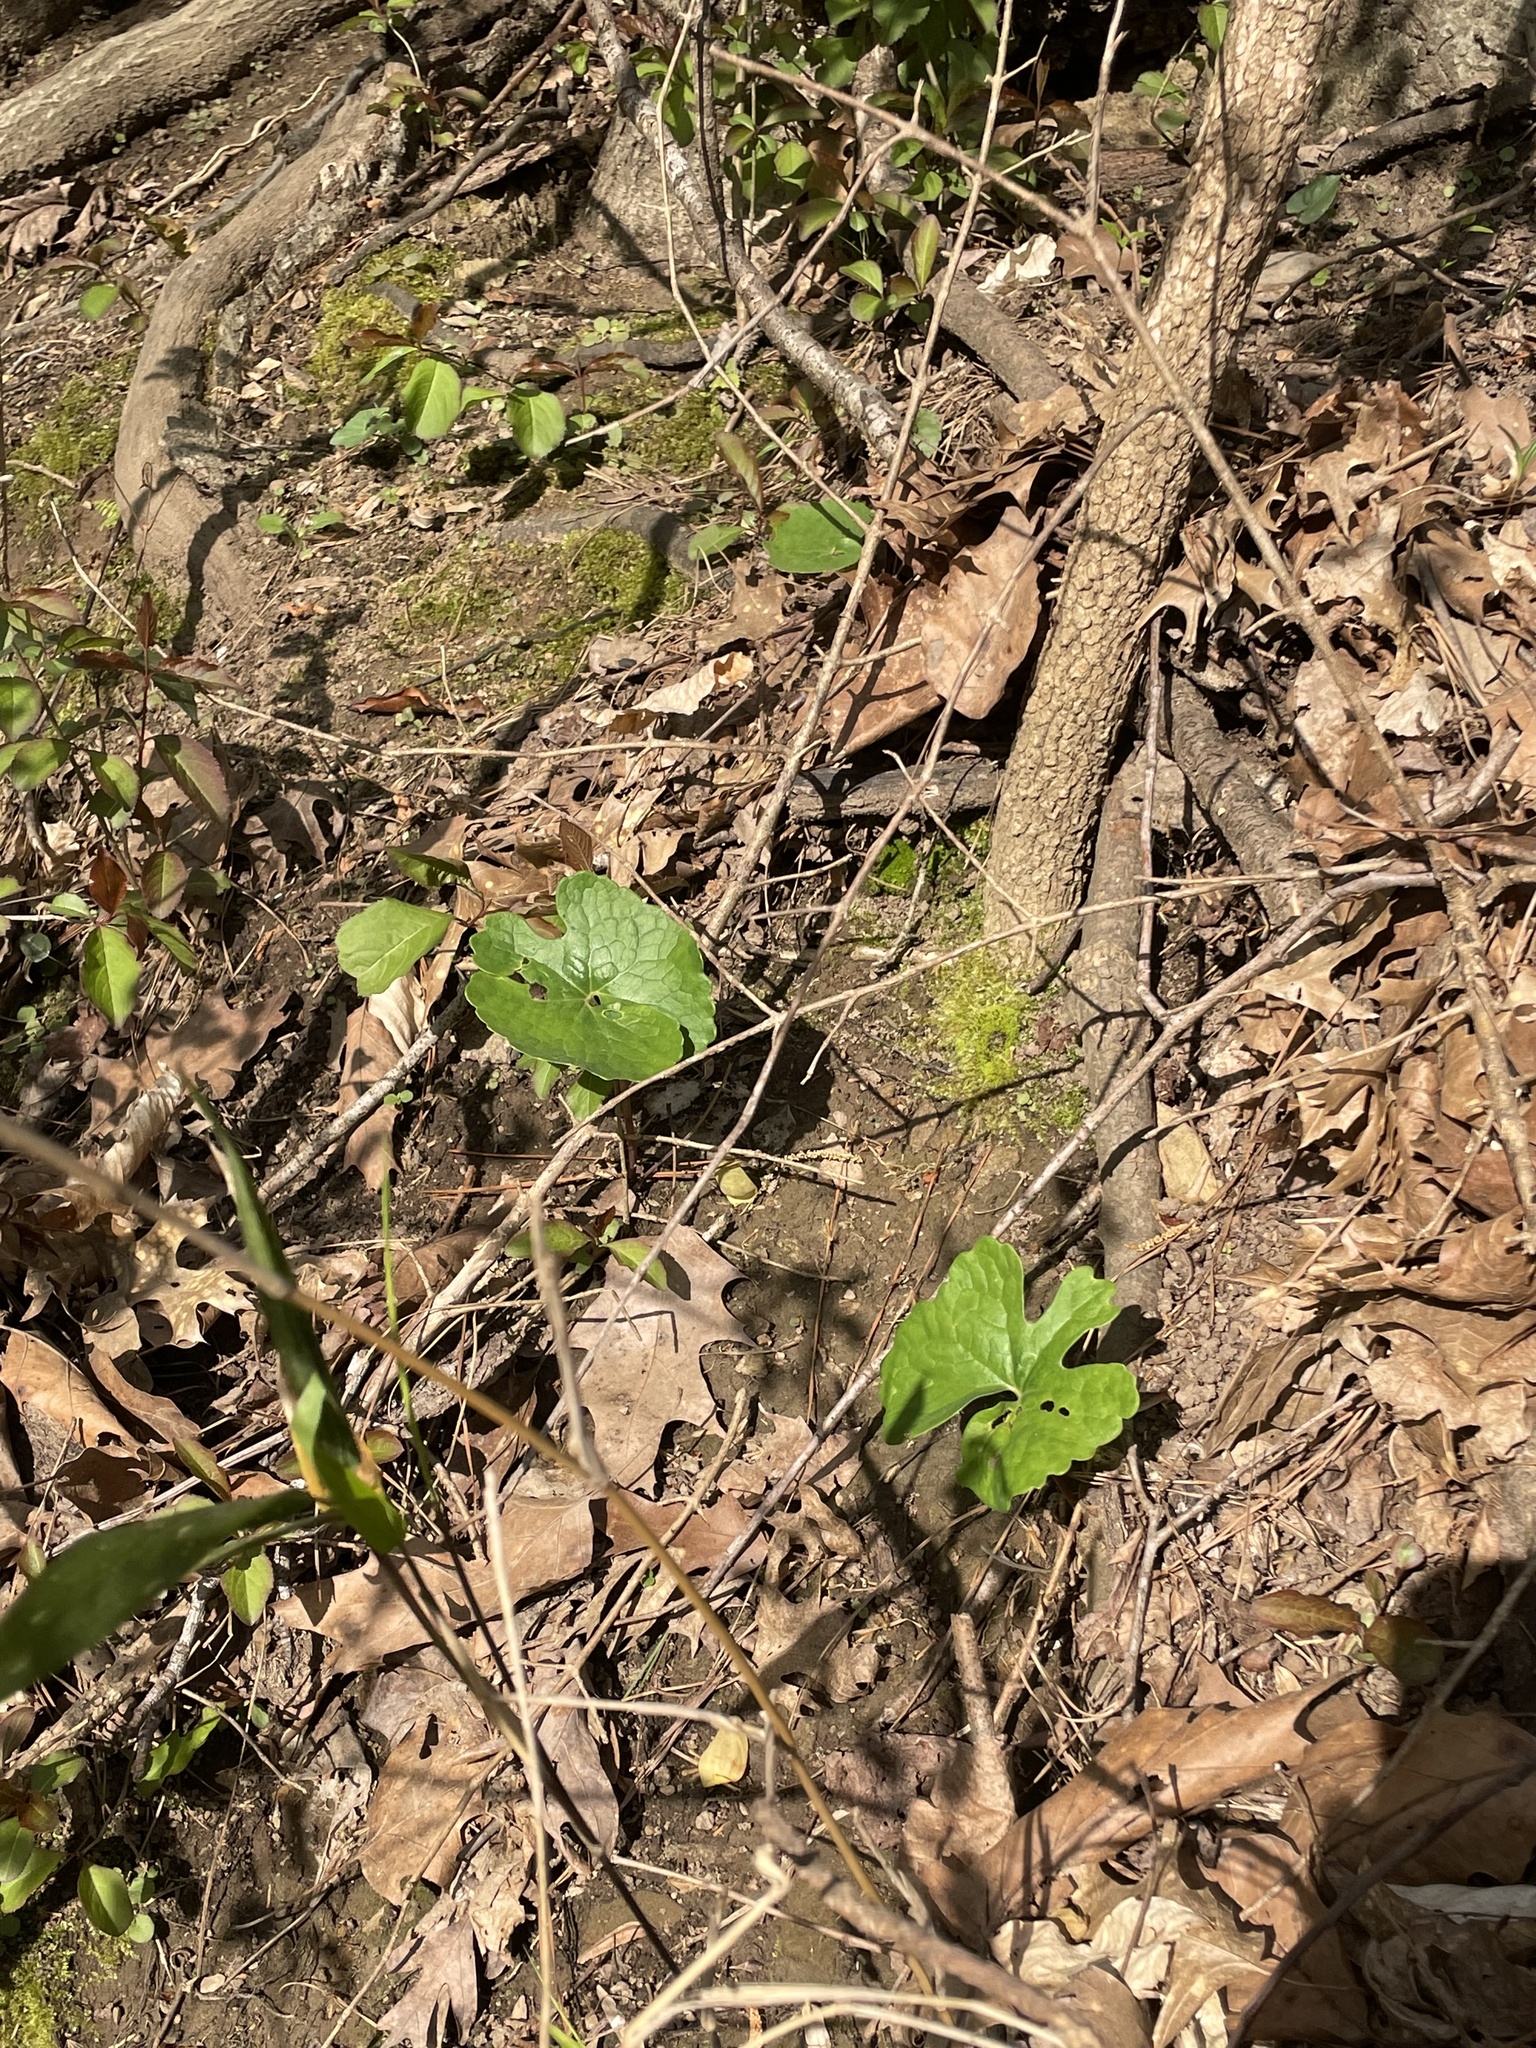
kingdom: Plantae
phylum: Tracheophyta
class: Magnoliopsida
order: Ranunculales
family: Papaveraceae
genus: Sanguinaria
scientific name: Sanguinaria canadensis
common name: Bloodroot
